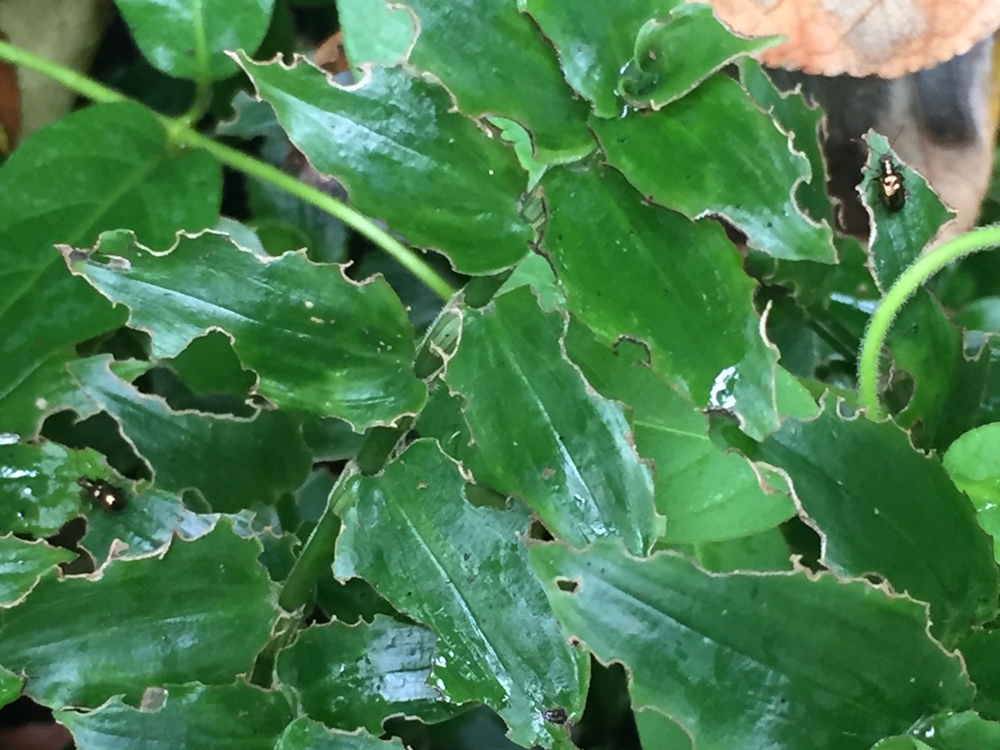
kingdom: Animalia
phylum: Arthropoda
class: Insecta
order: Coleoptera
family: Chrysomelidae
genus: Neolema
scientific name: Neolema ogloblini
